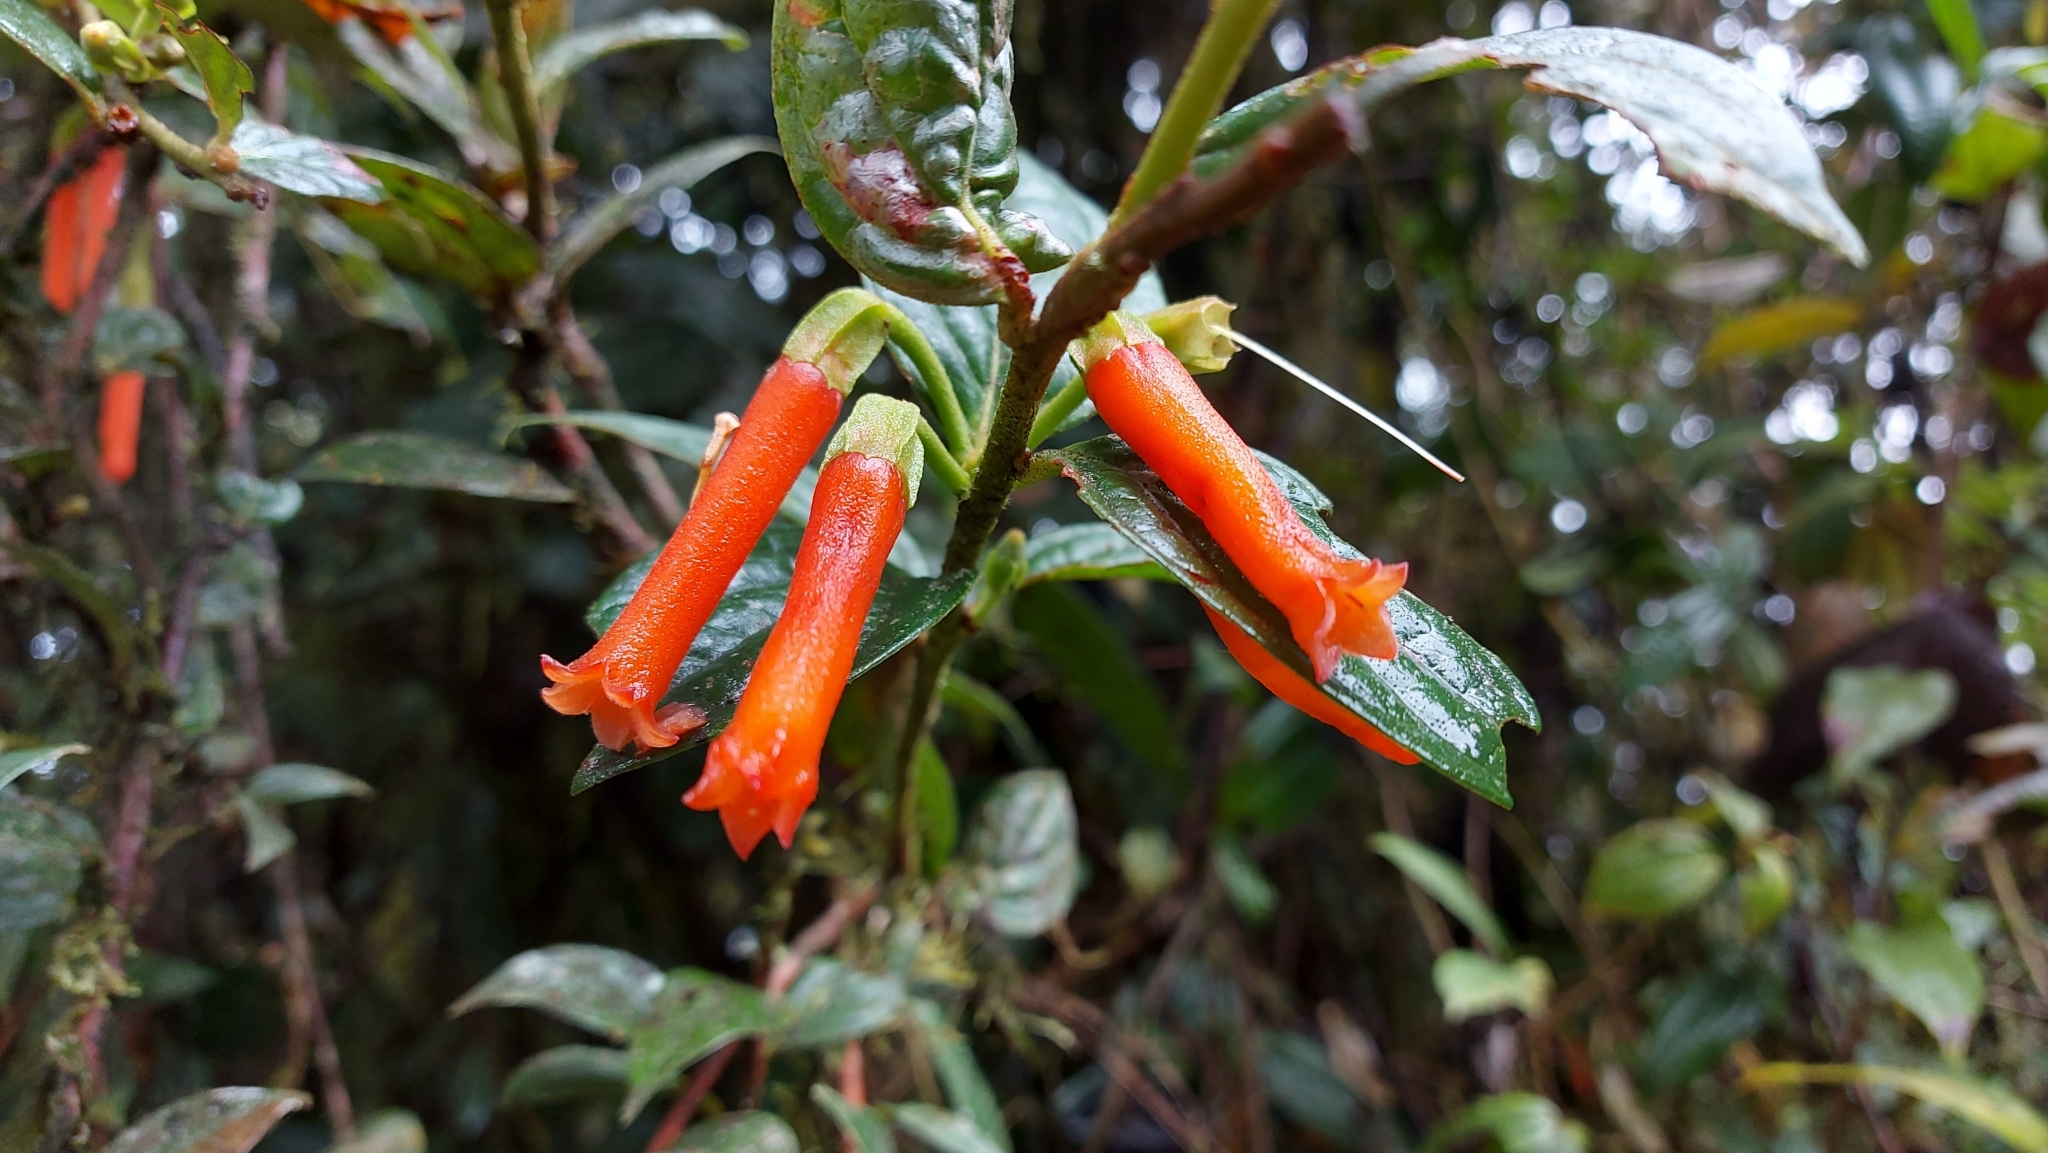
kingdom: Plantae
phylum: Tracheophyta
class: Magnoliopsida
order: Ericales
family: Ericaceae
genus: Macleania
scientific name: Macleania bullata
